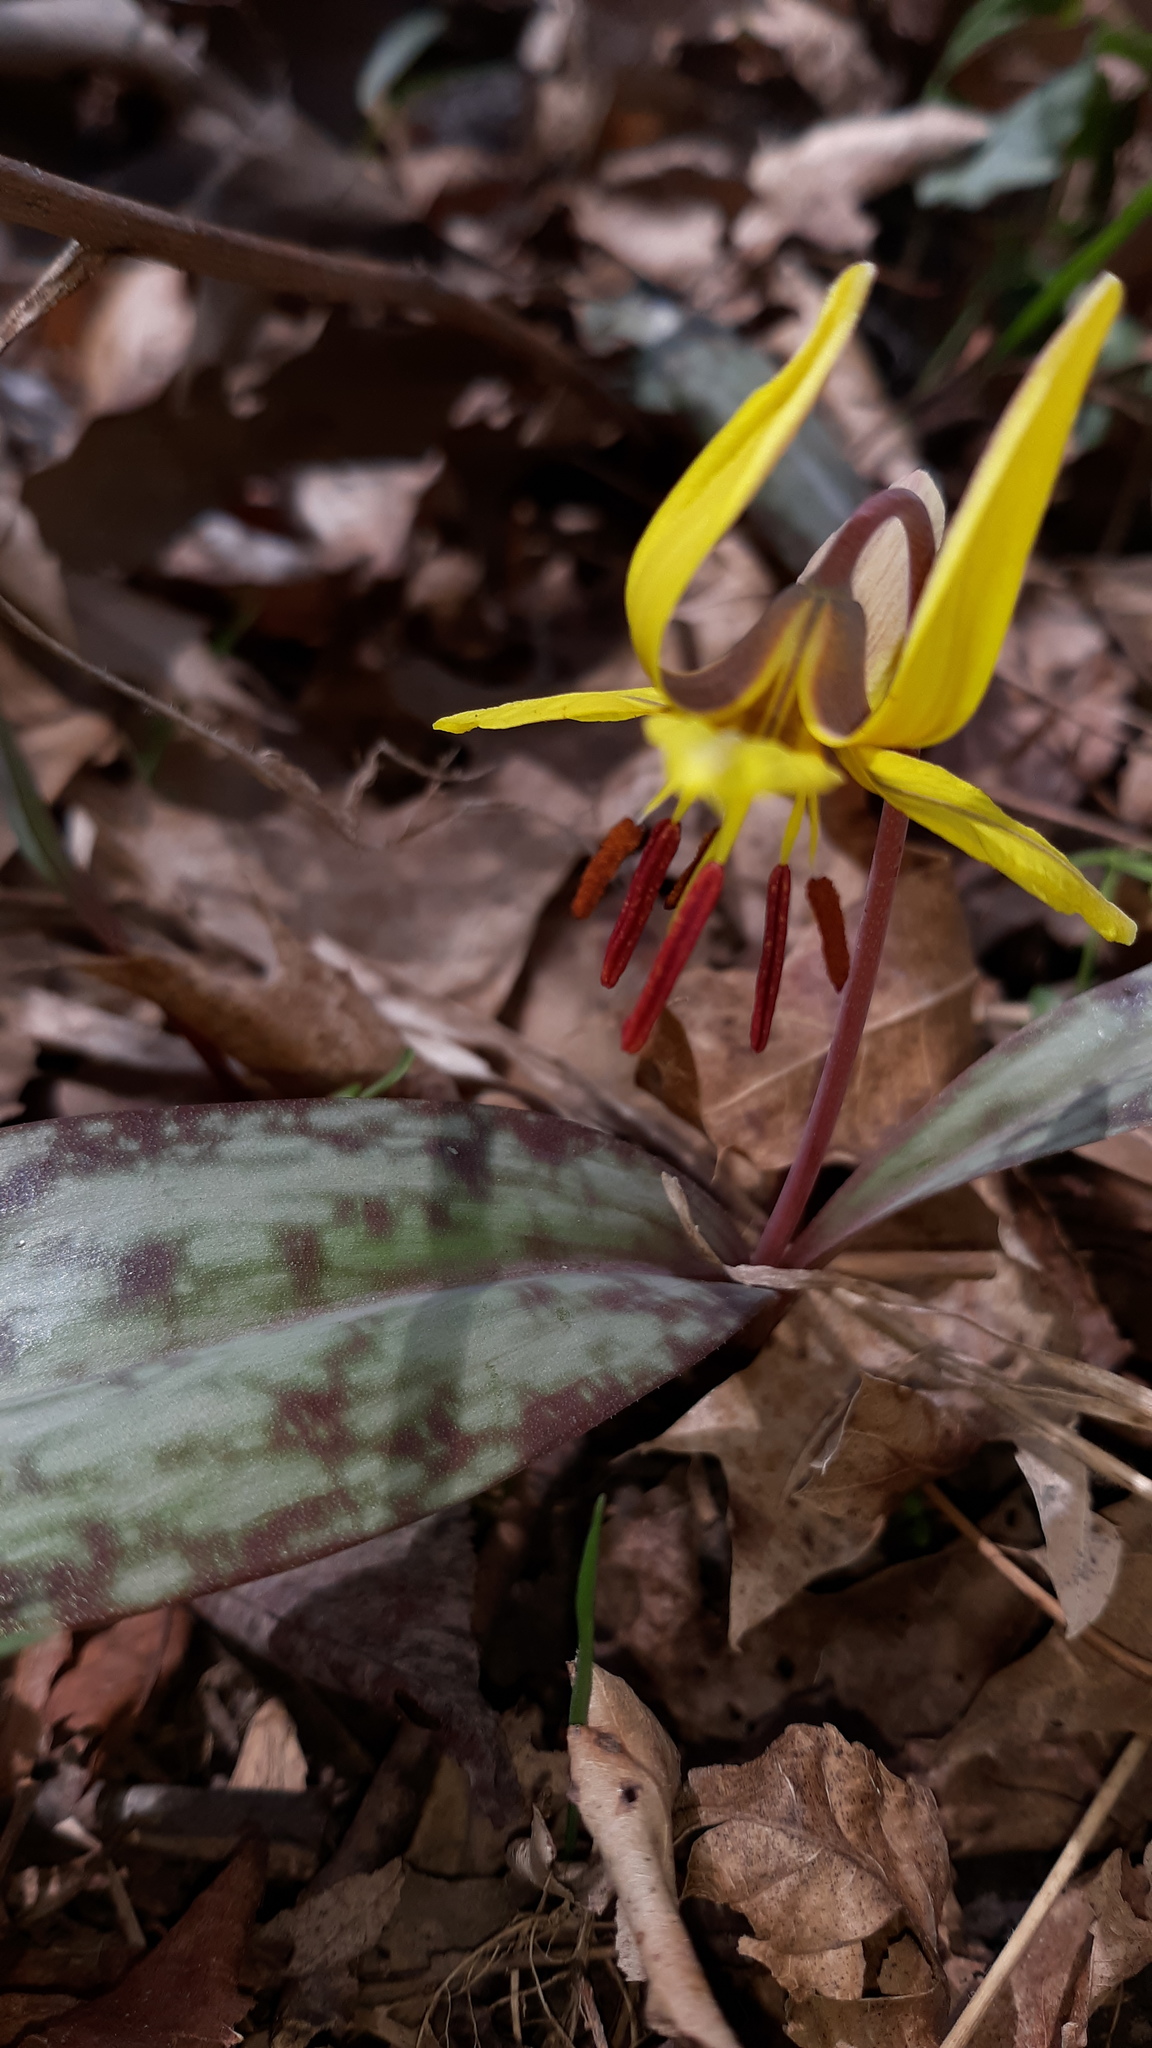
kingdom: Plantae
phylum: Tracheophyta
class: Liliopsida
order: Liliales
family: Liliaceae
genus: Erythronium
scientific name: Erythronium americanum
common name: Yellow adder's-tongue
